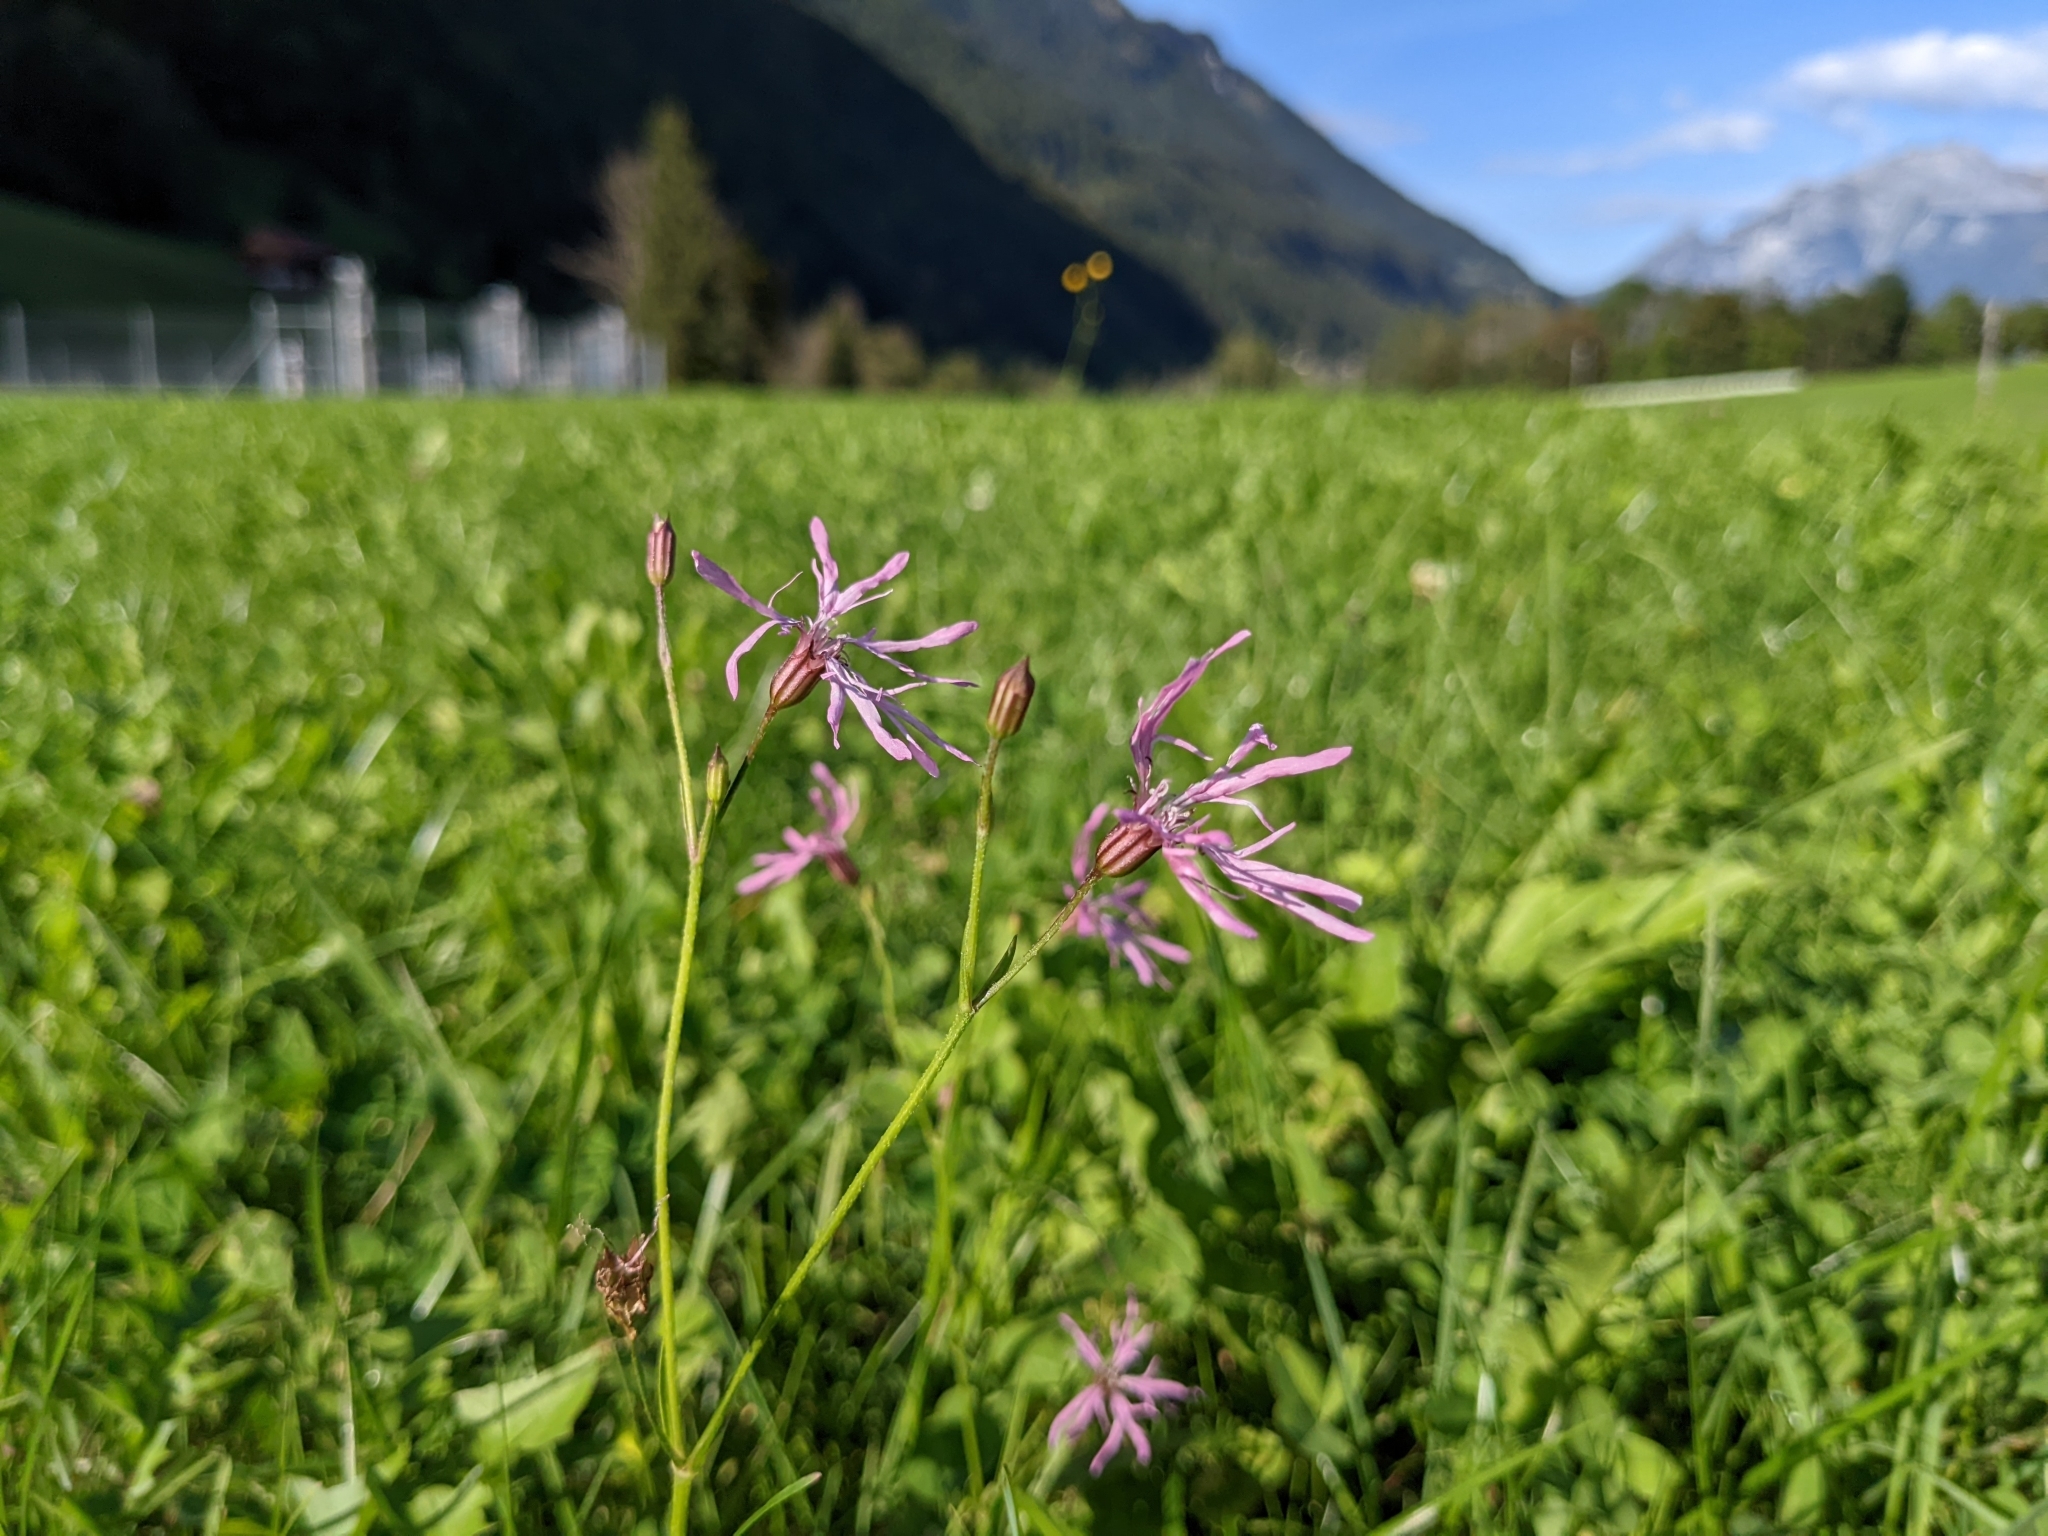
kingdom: Plantae
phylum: Tracheophyta
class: Magnoliopsida
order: Caryophyllales
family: Caryophyllaceae
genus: Silene
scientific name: Silene flos-cuculi
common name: Ragged-robin
